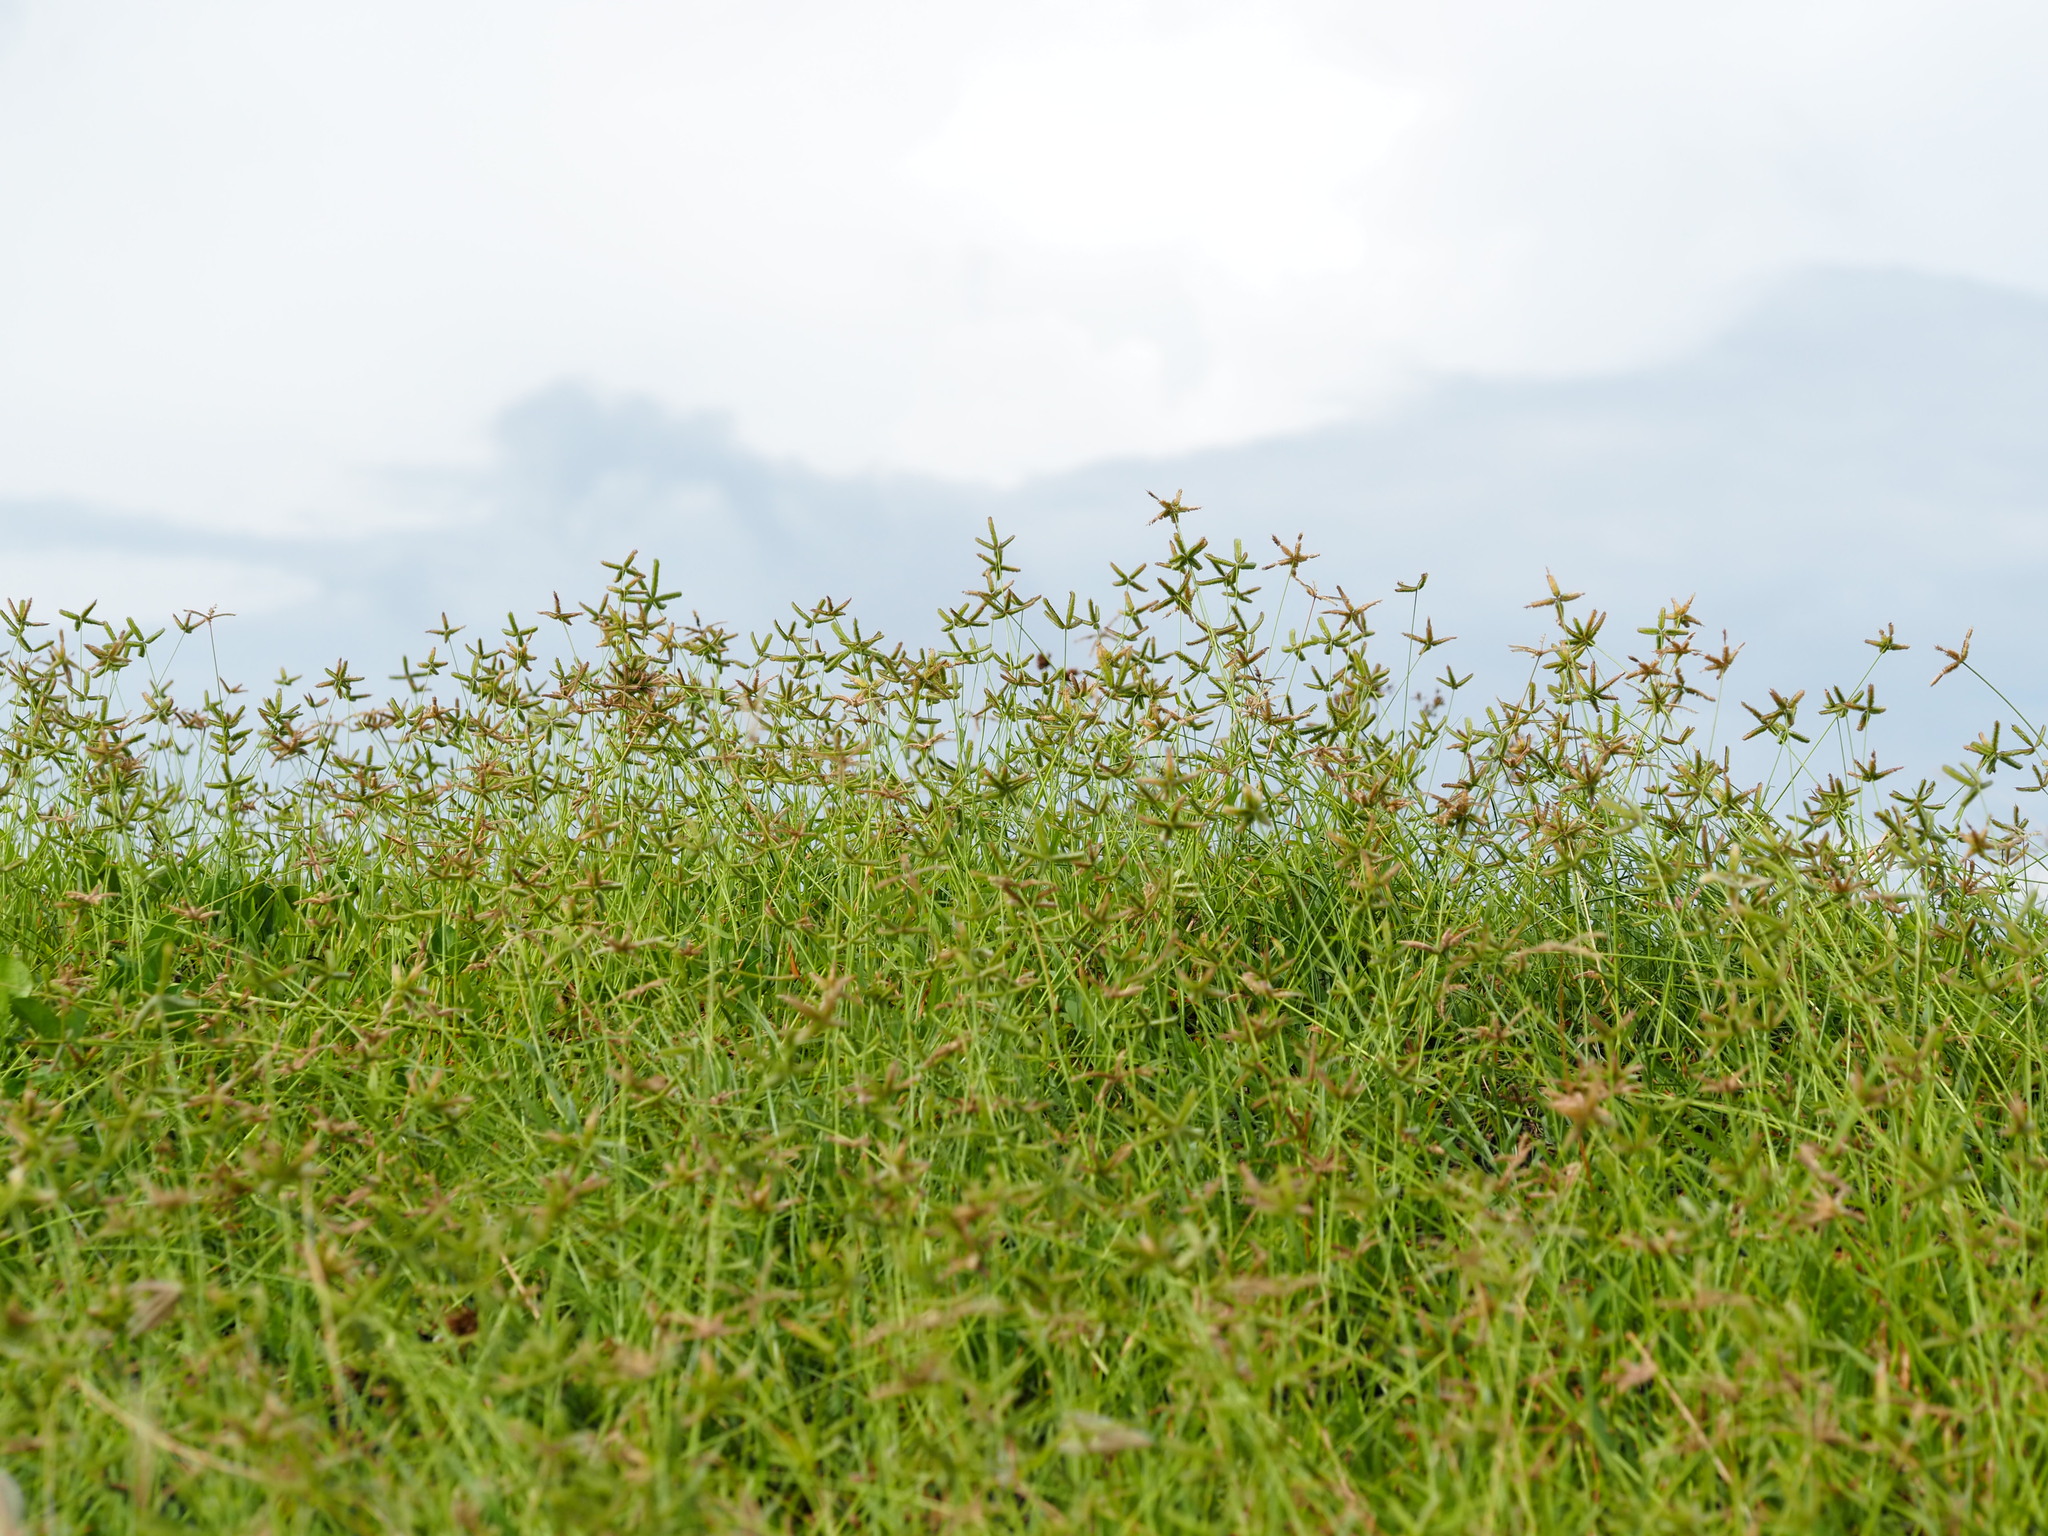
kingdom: Plantae
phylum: Tracheophyta
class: Liliopsida
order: Poales
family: Poaceae
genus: Dactyloctenium
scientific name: Dactyloctenium aegyptium
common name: Egyptian grass
